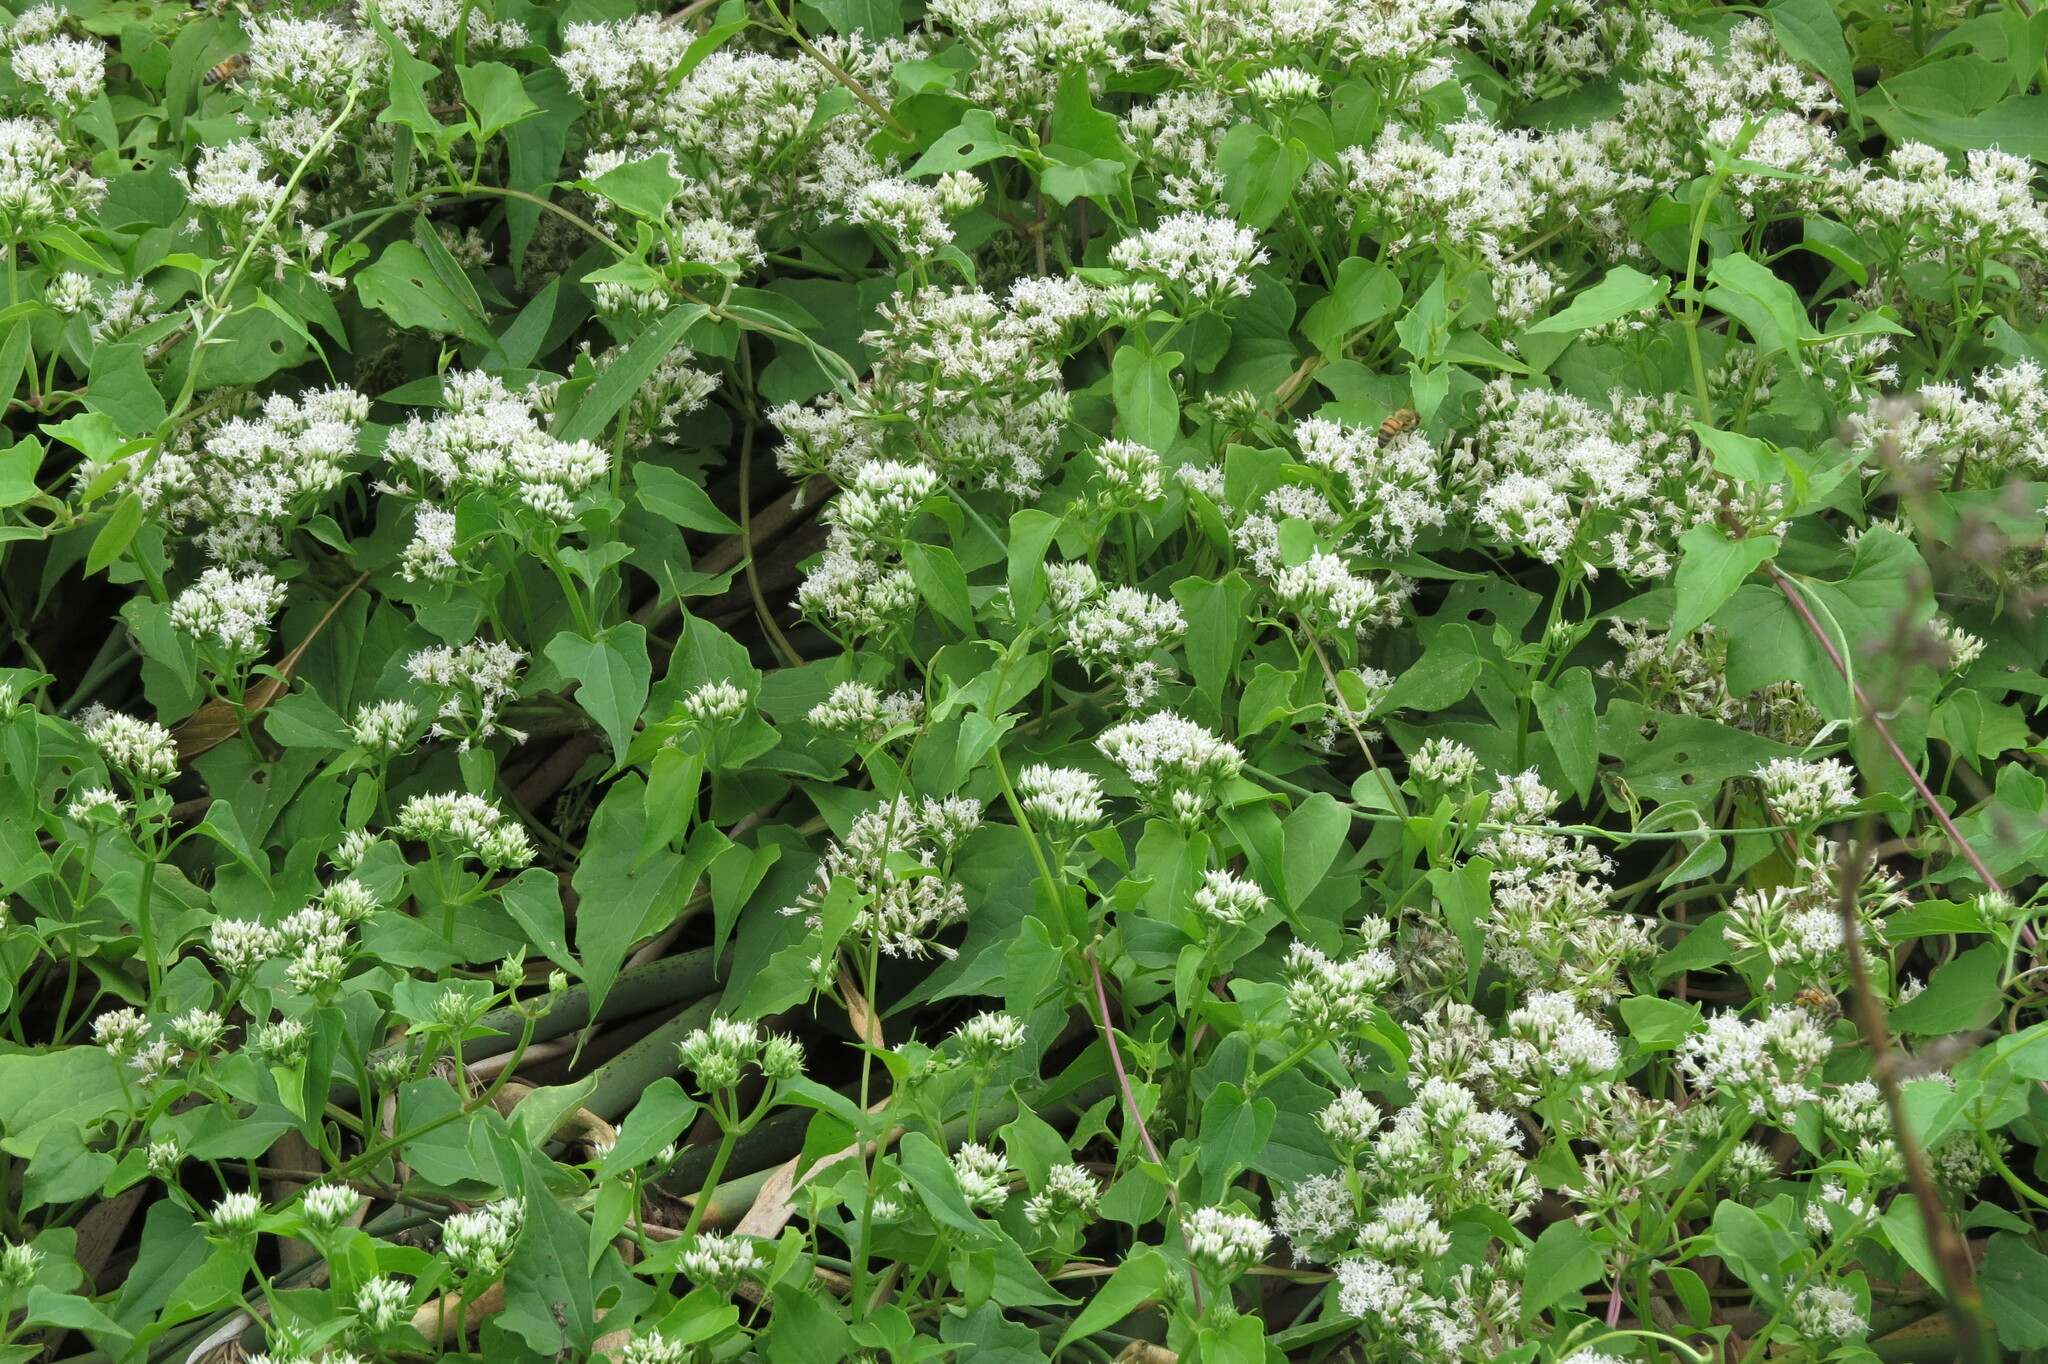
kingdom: Plantae
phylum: Tracheophyta
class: Magnoliopsida
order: Asterales
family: Asteraceae
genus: Mikania
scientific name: Mikania scandens
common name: Climbing hempvine
